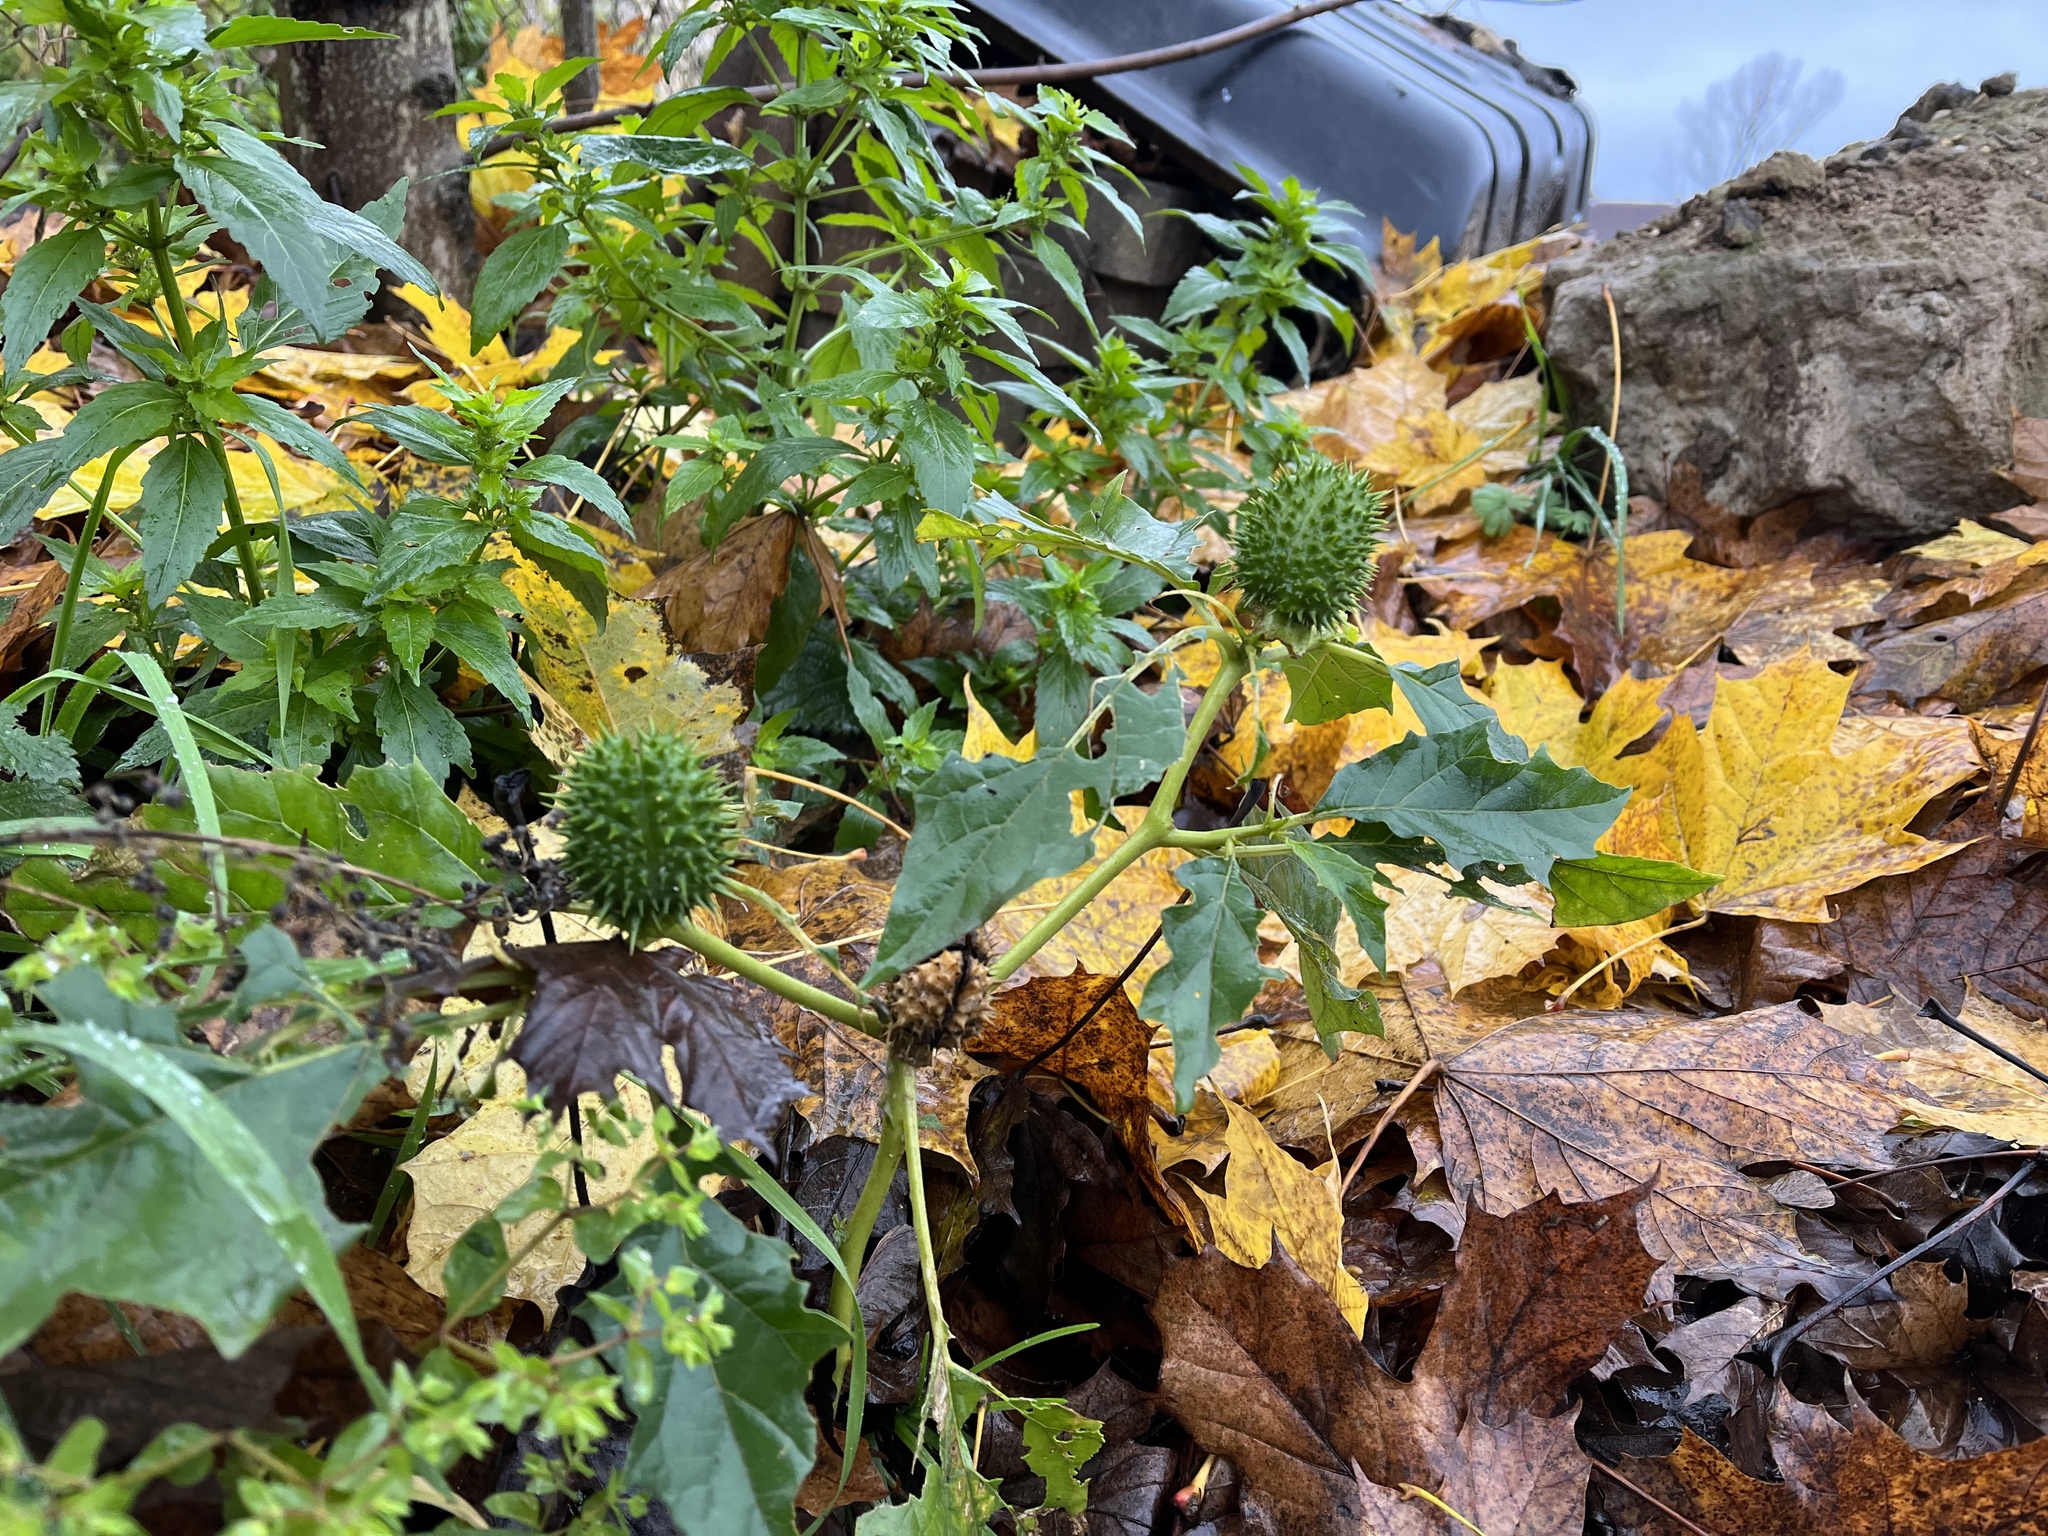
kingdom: Plantae
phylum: Tracheophyta
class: Magnoliopsida
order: Solanales
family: Solanaceae
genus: Datura
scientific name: Datura stramonium
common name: Thorn-apple
